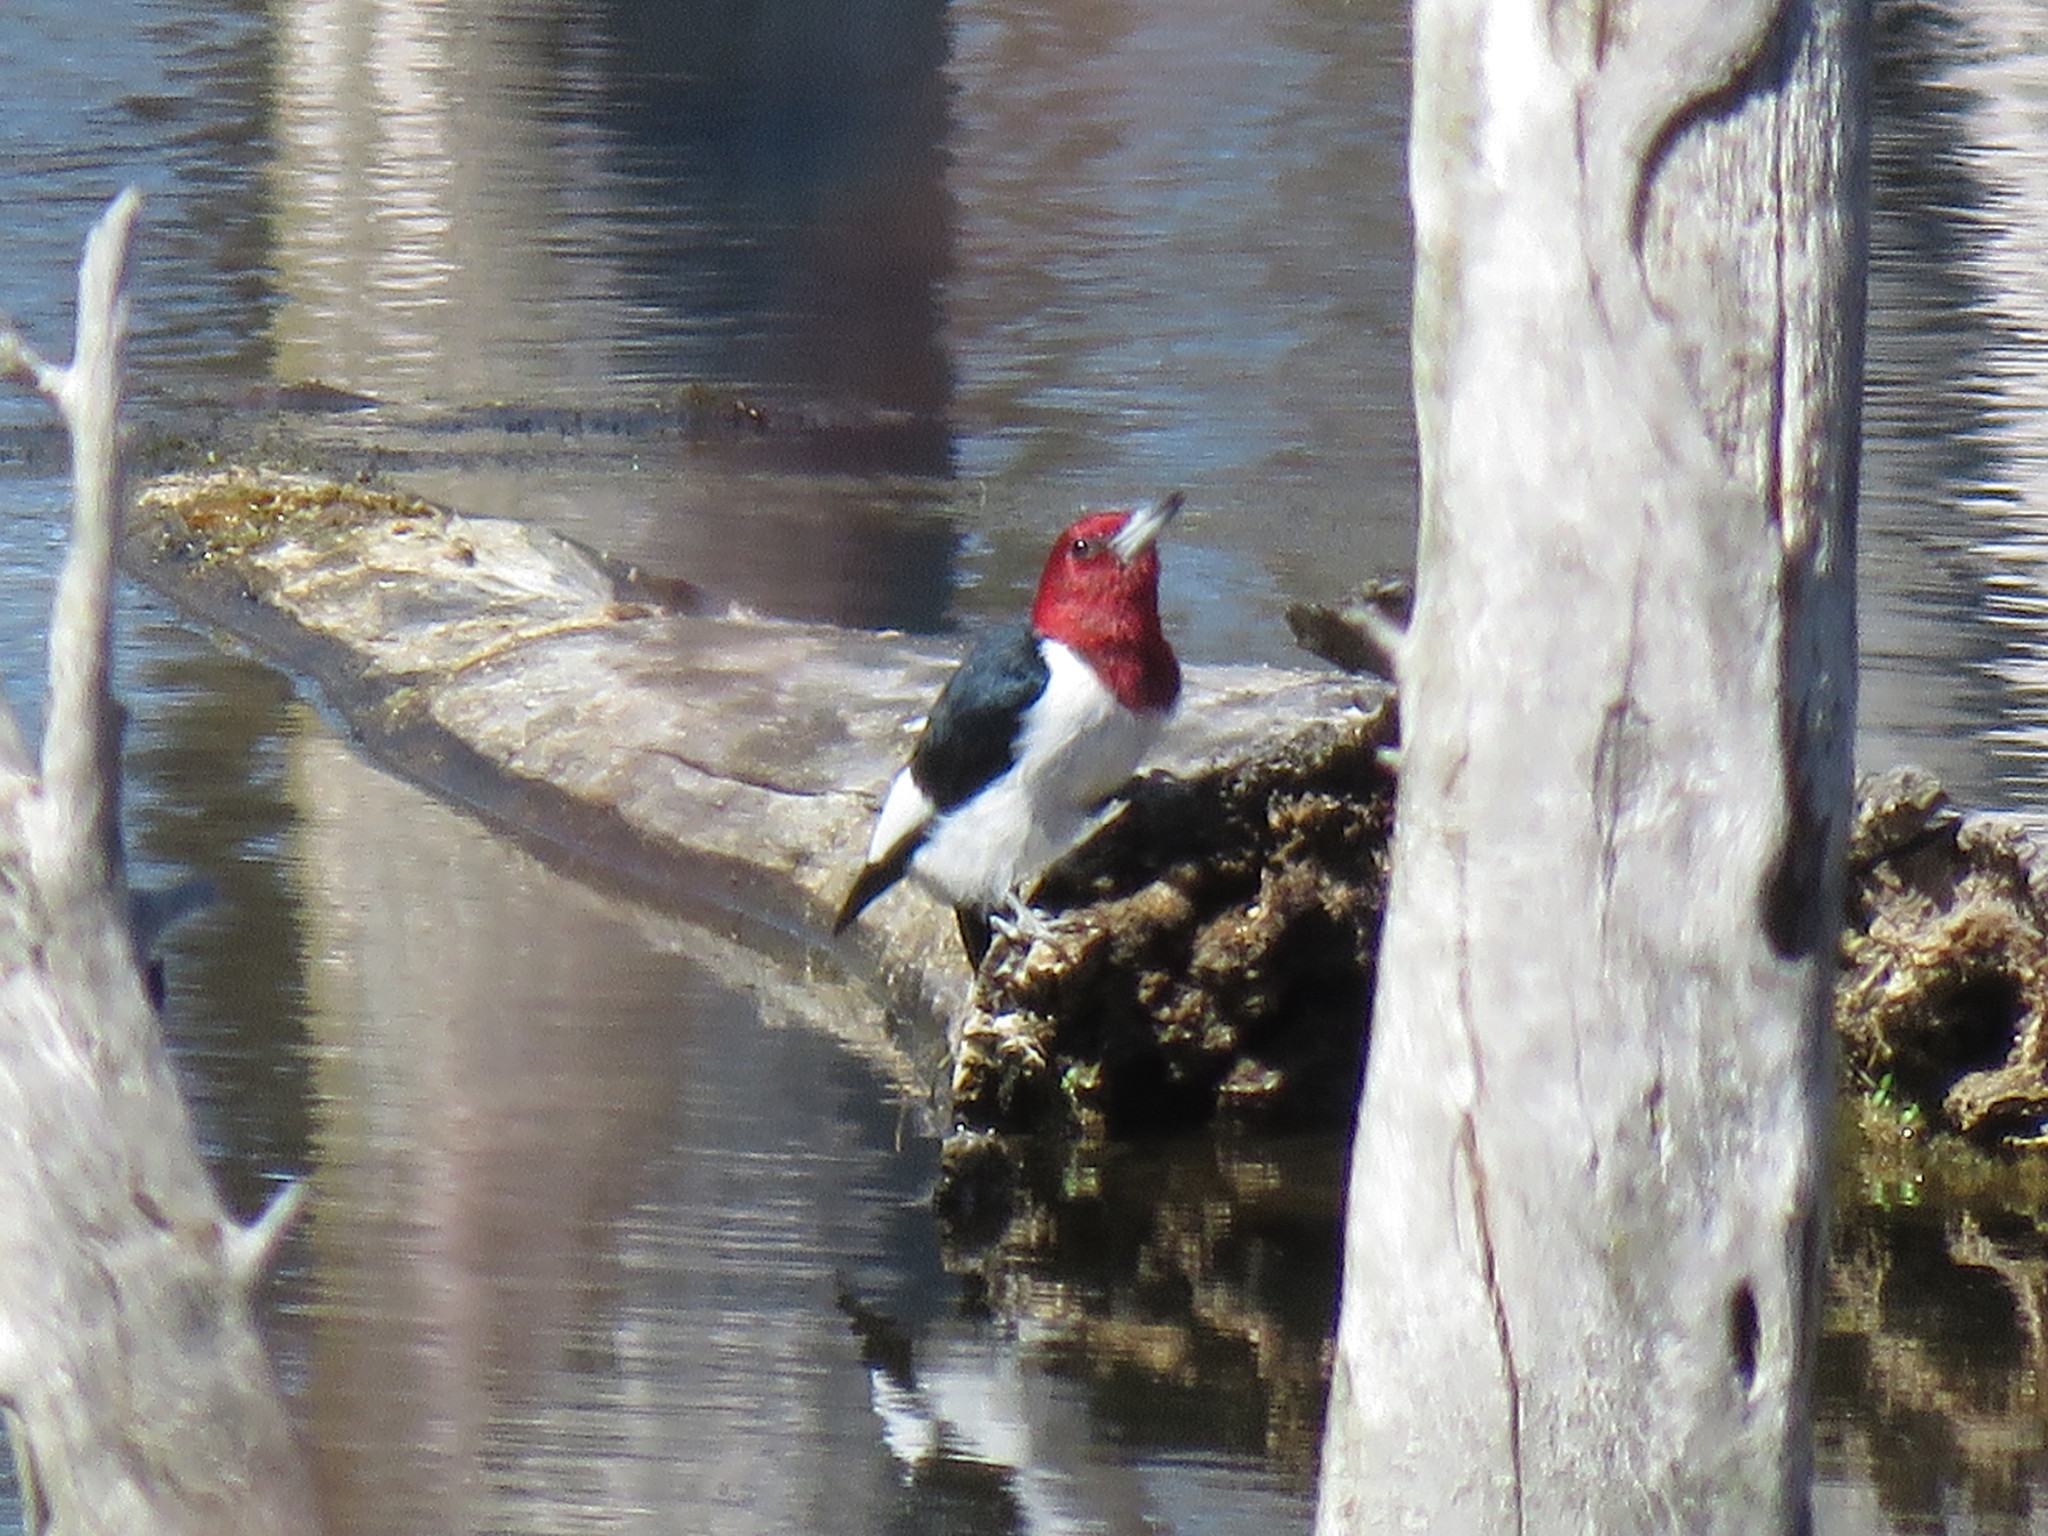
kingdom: Animalia
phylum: Chordata
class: Aves
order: Piciformes
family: Picidae
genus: Melanerpes
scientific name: Melanerpes erythrocephalus
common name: Red-headed woodpecker
